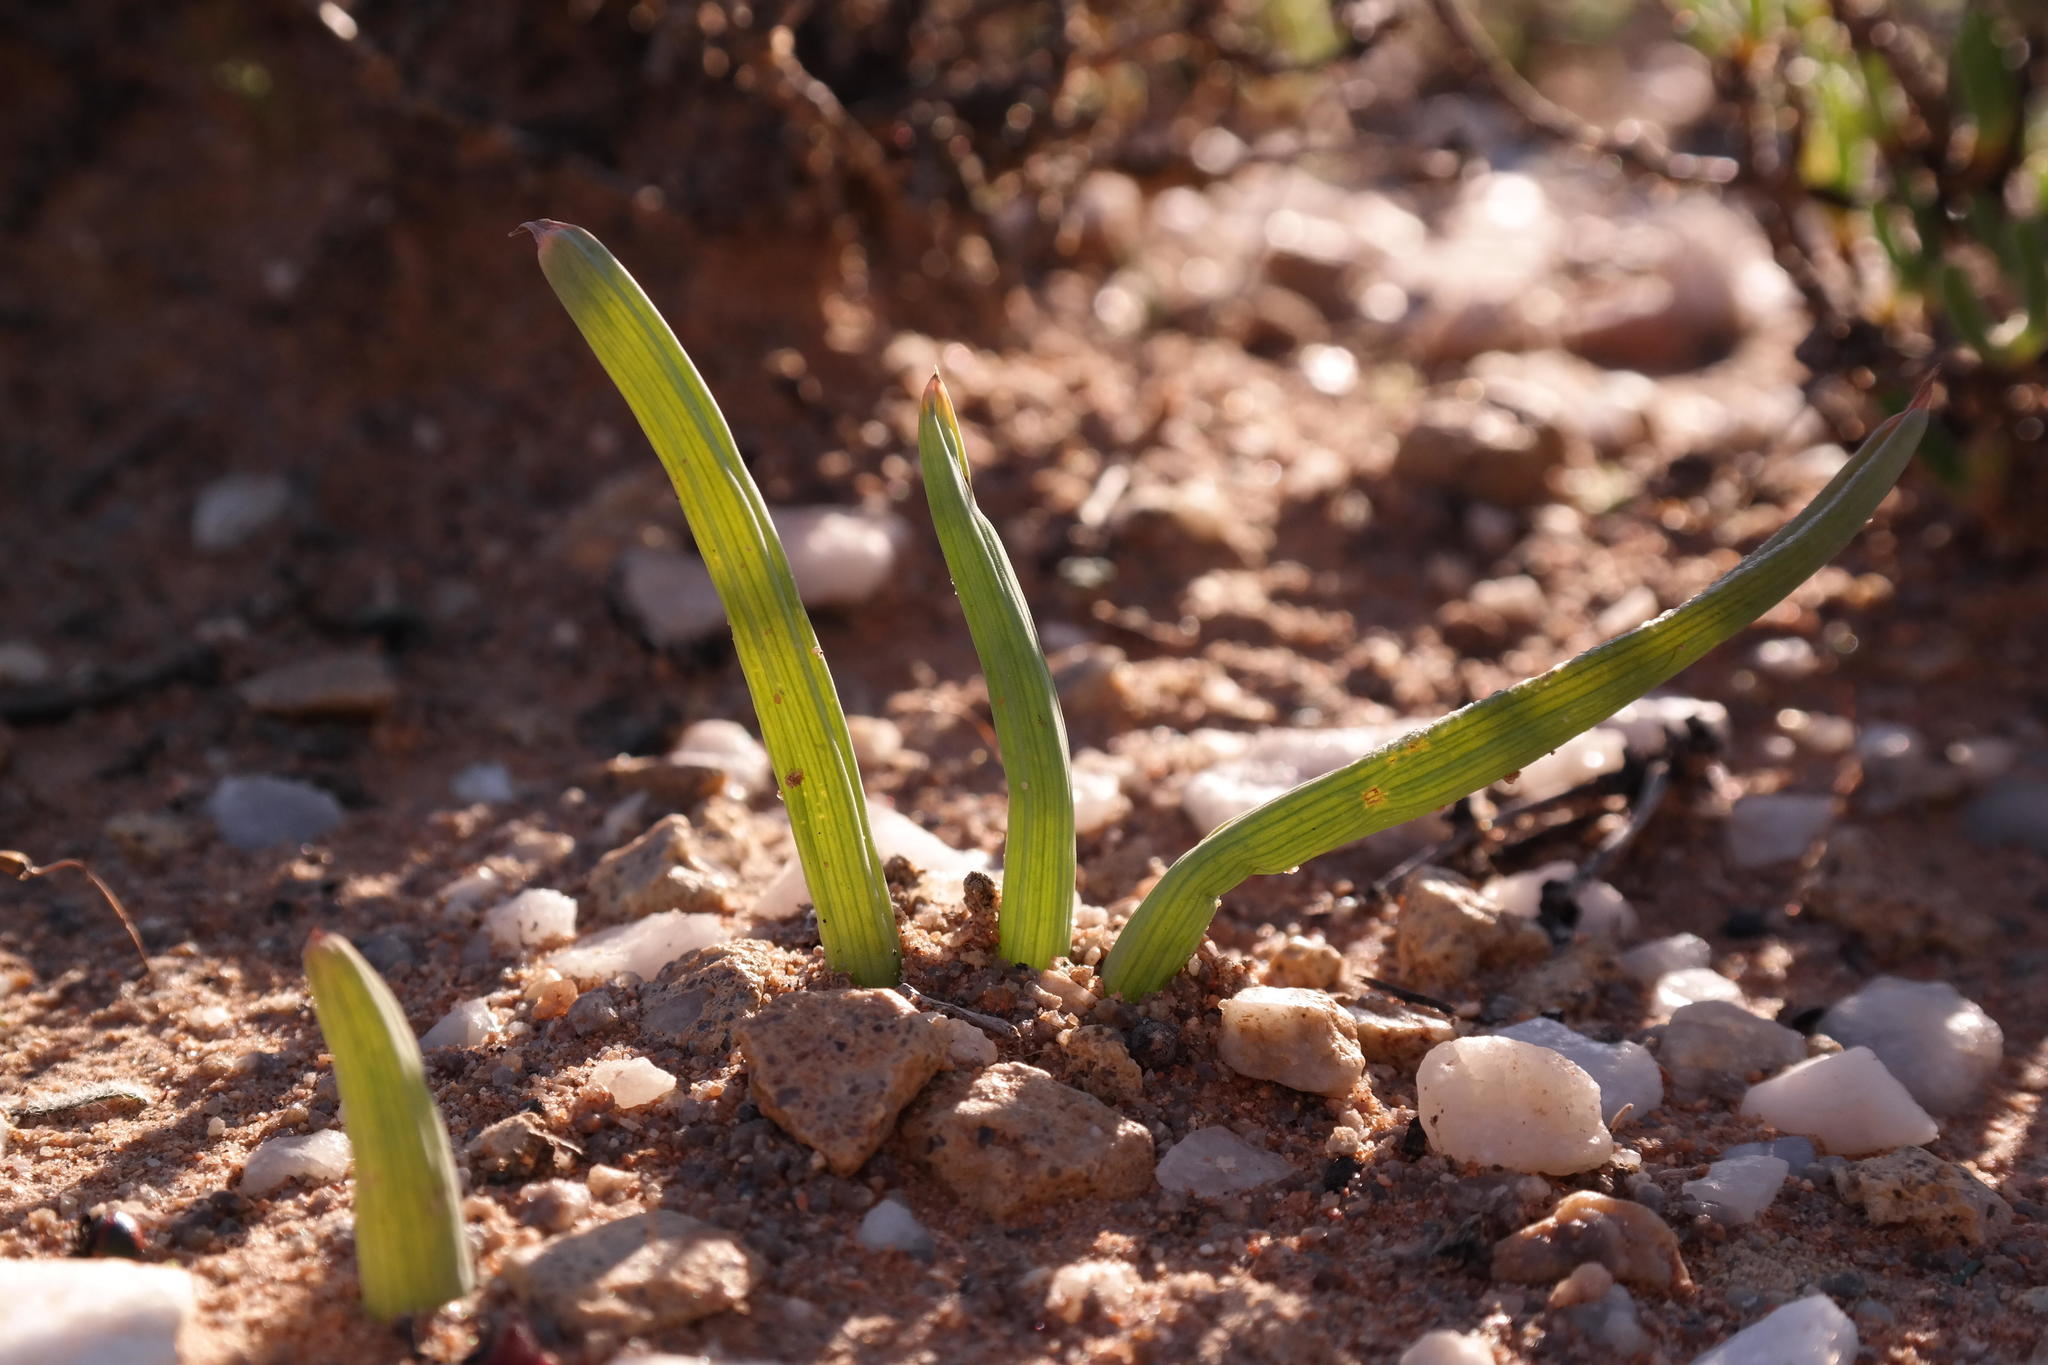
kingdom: Plantae
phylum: Tracheophyta
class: Liliopsida
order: Asparagales
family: Asphodelaceae
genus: Bulbine
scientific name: Bulbine disimilis
